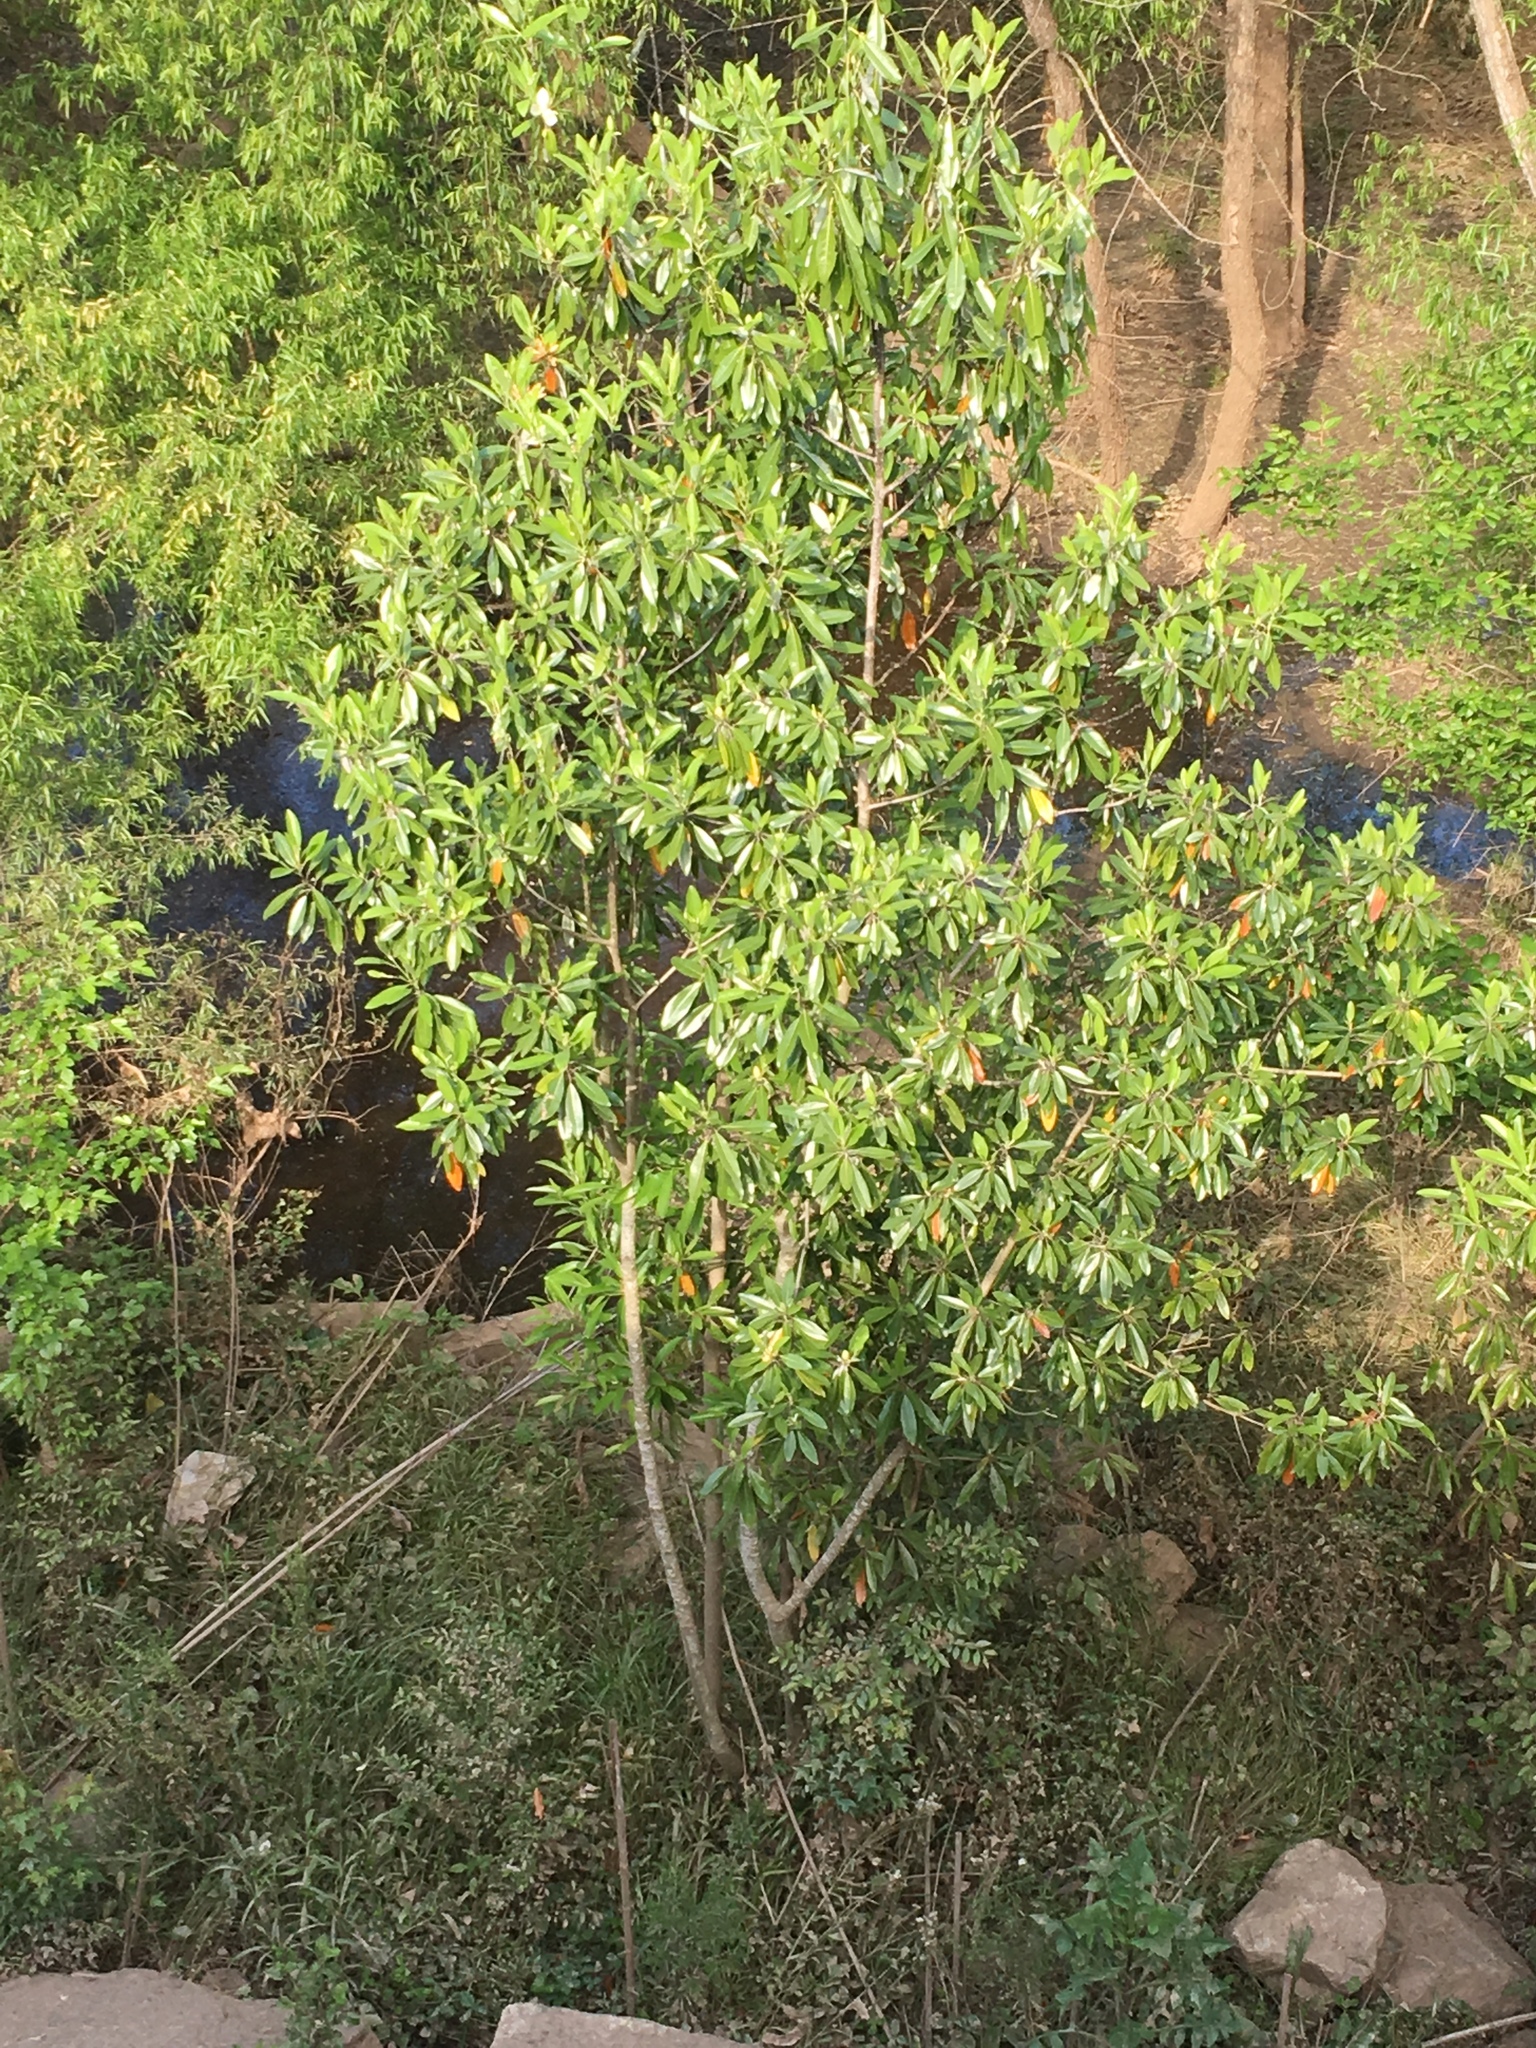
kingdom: Plantae
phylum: Tracheophyta
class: Magnoliopsida
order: Magnoliales
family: Magnoliaceae
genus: Magnolia
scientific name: Magnolia virginiana
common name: Swamp bay
